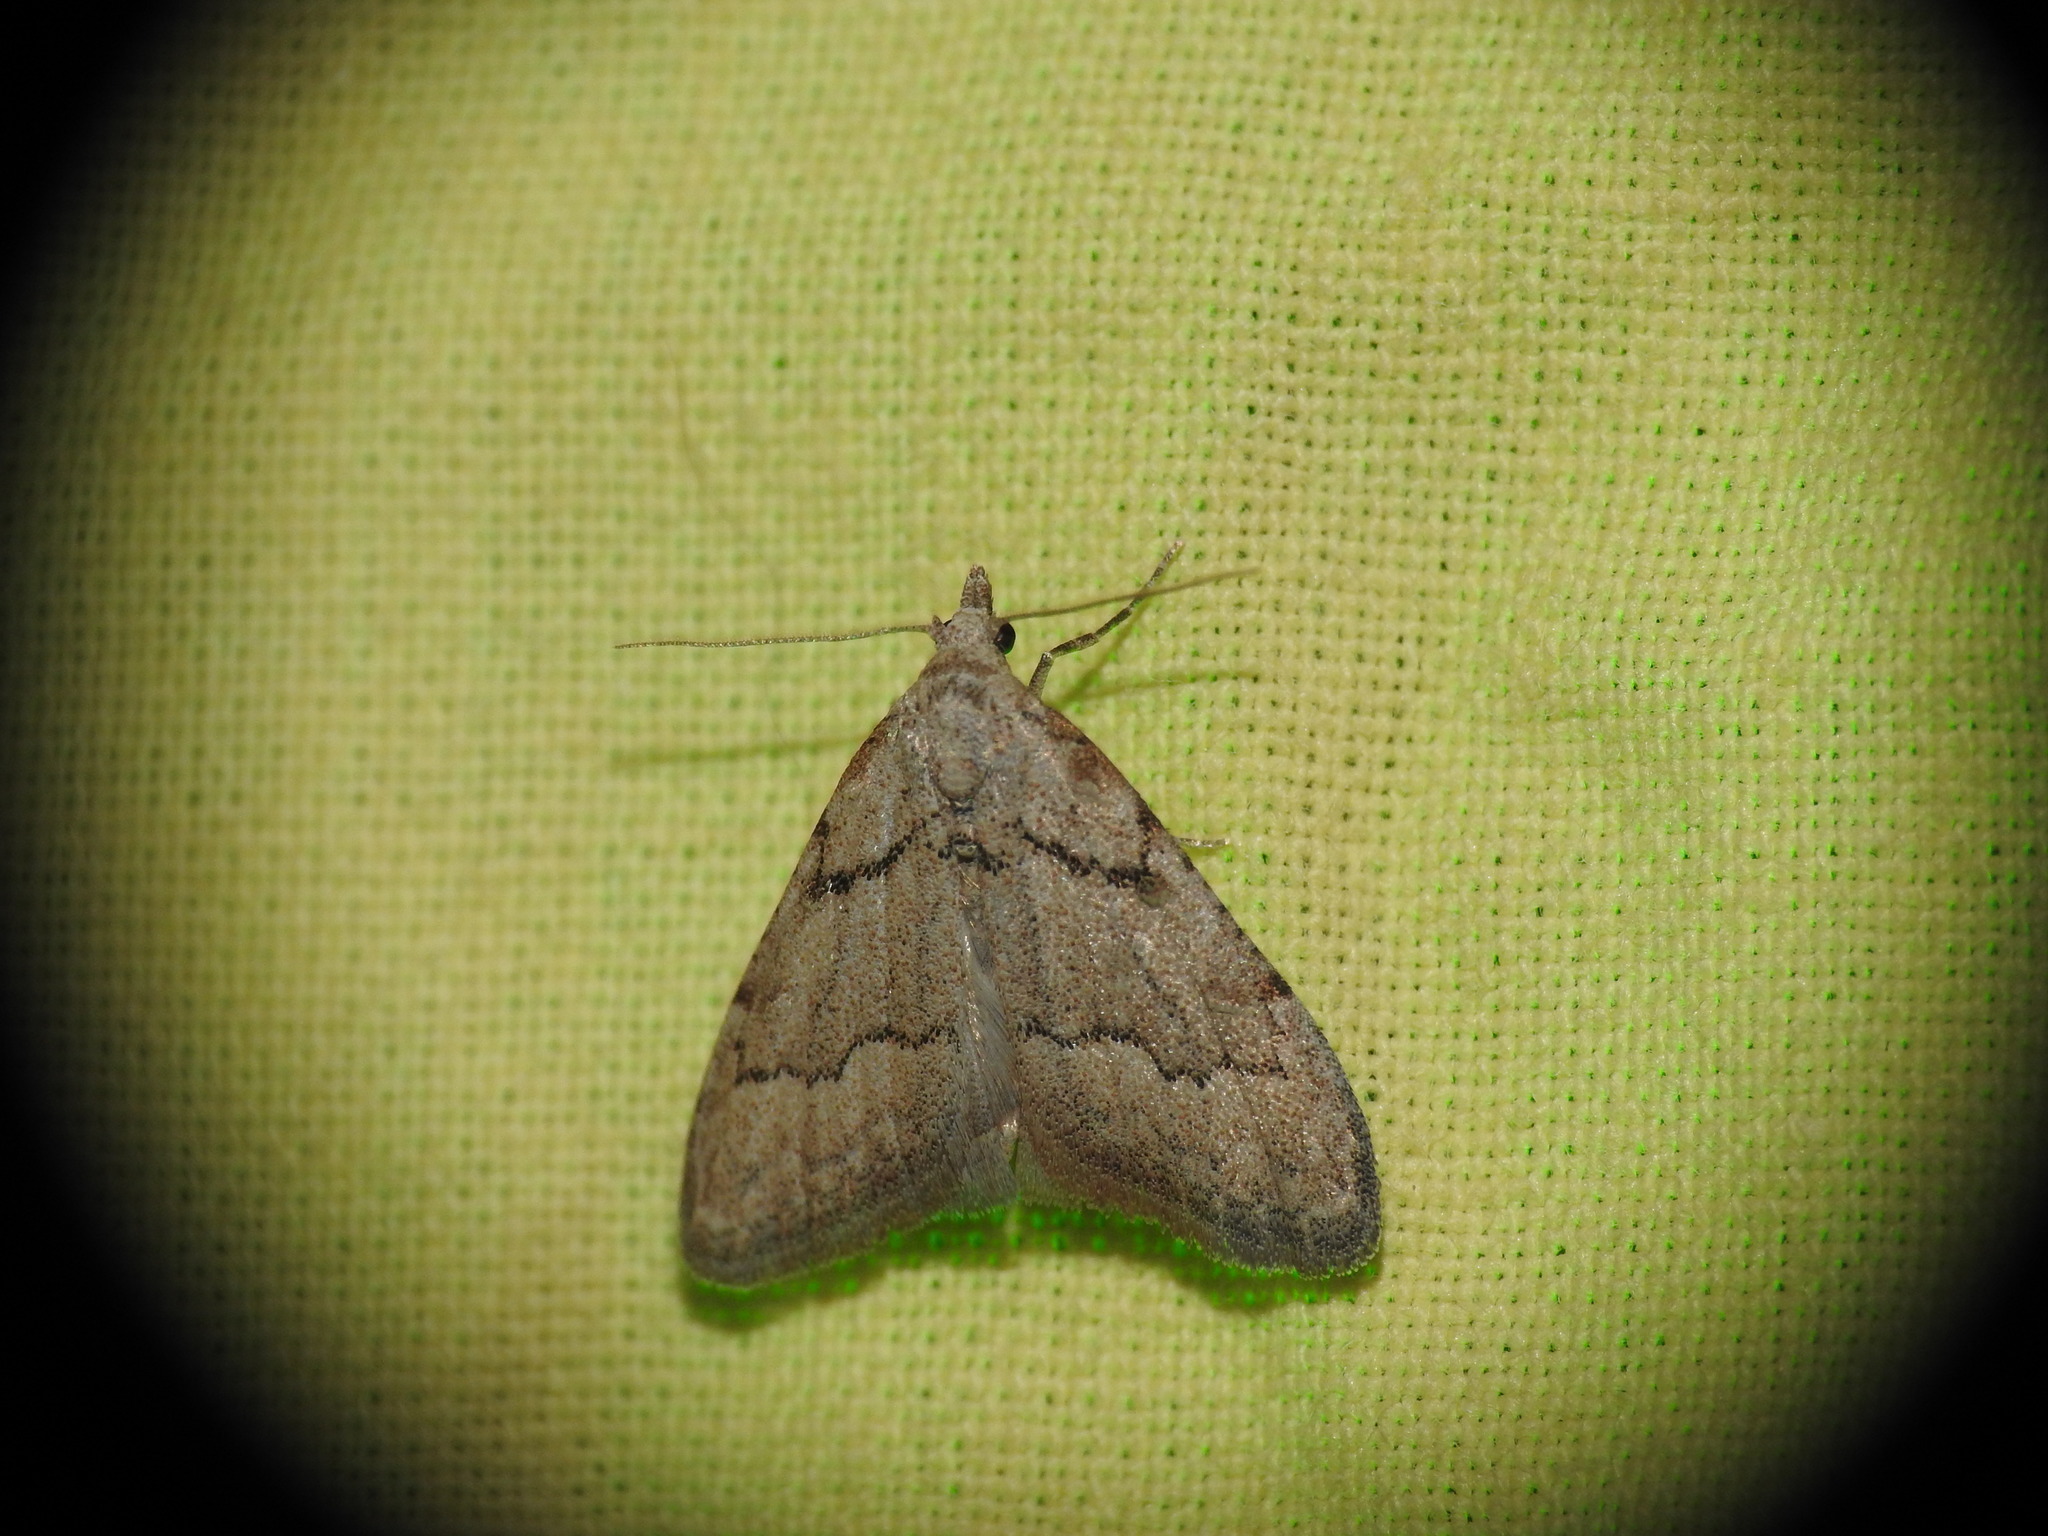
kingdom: Animalia
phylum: Arthropoda
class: Insecta
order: Lepidoptera
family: Nolidae
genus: Nola
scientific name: Nola thymula
